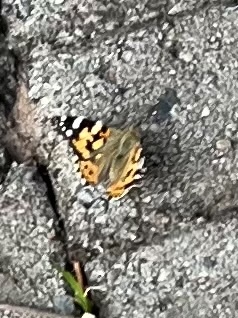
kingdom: Animalia
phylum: Arthropoda
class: Insecta
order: Lepidoptera
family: Nymphalidae
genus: Vanessa
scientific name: Vanessa cardui
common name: Painted lady
